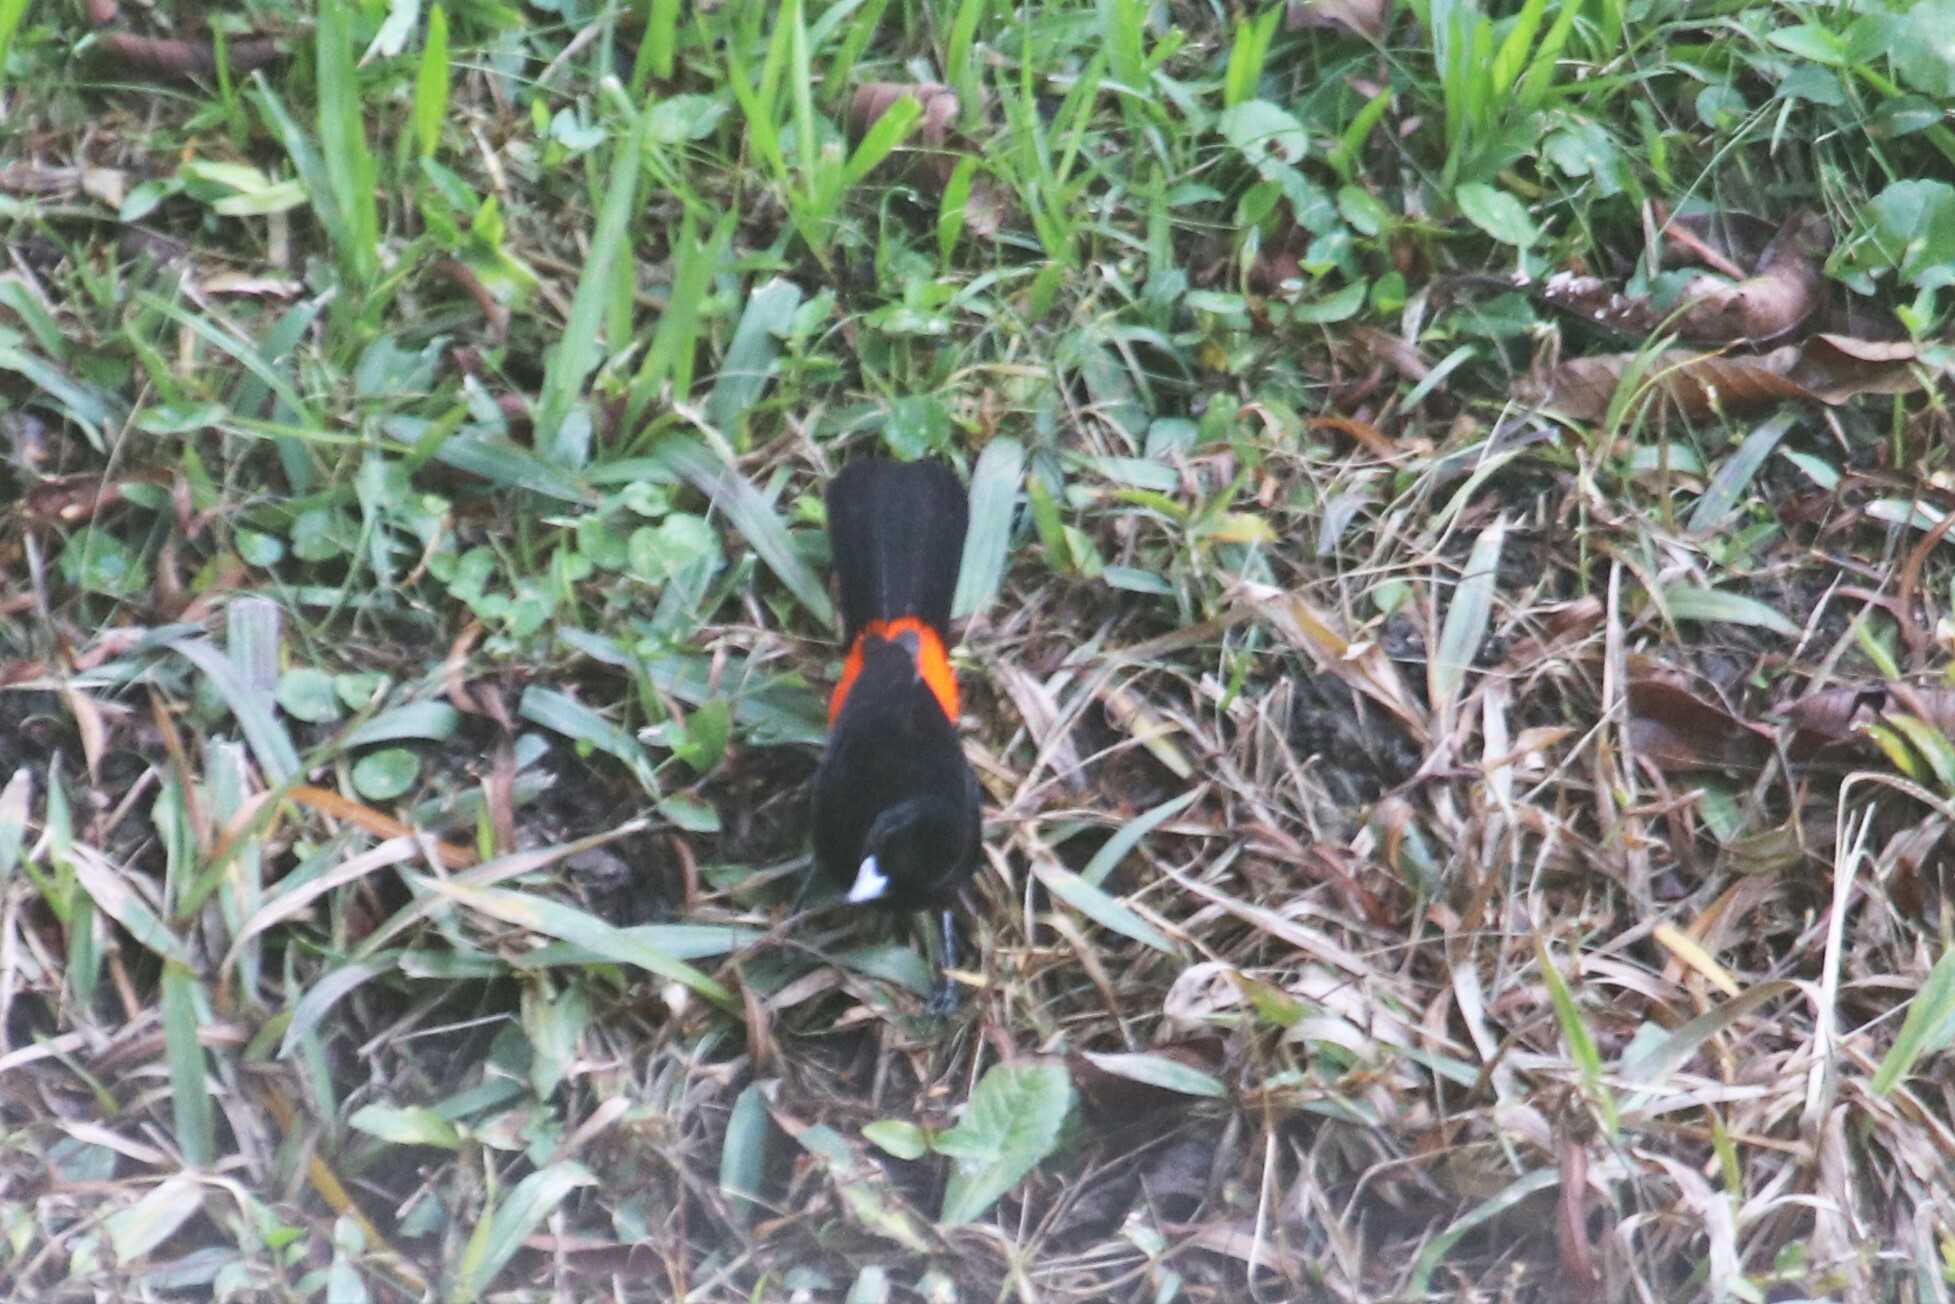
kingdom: Animalia
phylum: Chordata
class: Aves
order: Passeriformes
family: Thraupidae
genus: Ramphocelus
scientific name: Ramphocelus flammigerus
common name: Flame-rumped tanager
